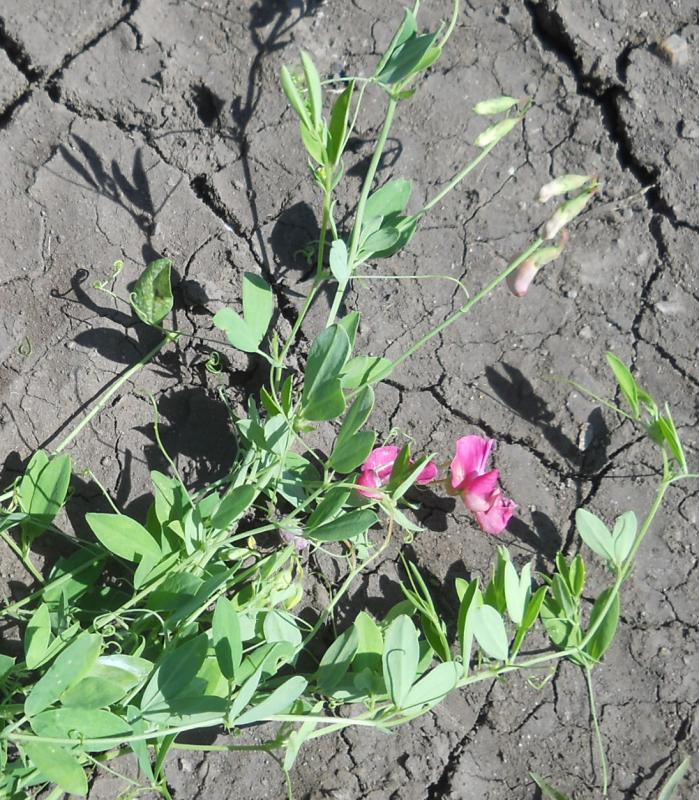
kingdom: Plantae
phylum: Tracheophyta
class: Magnoliopsida
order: Fabales
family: Fabaceae
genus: Lathyrus
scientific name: Lathyrus tuberosus
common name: Tuberous pea
